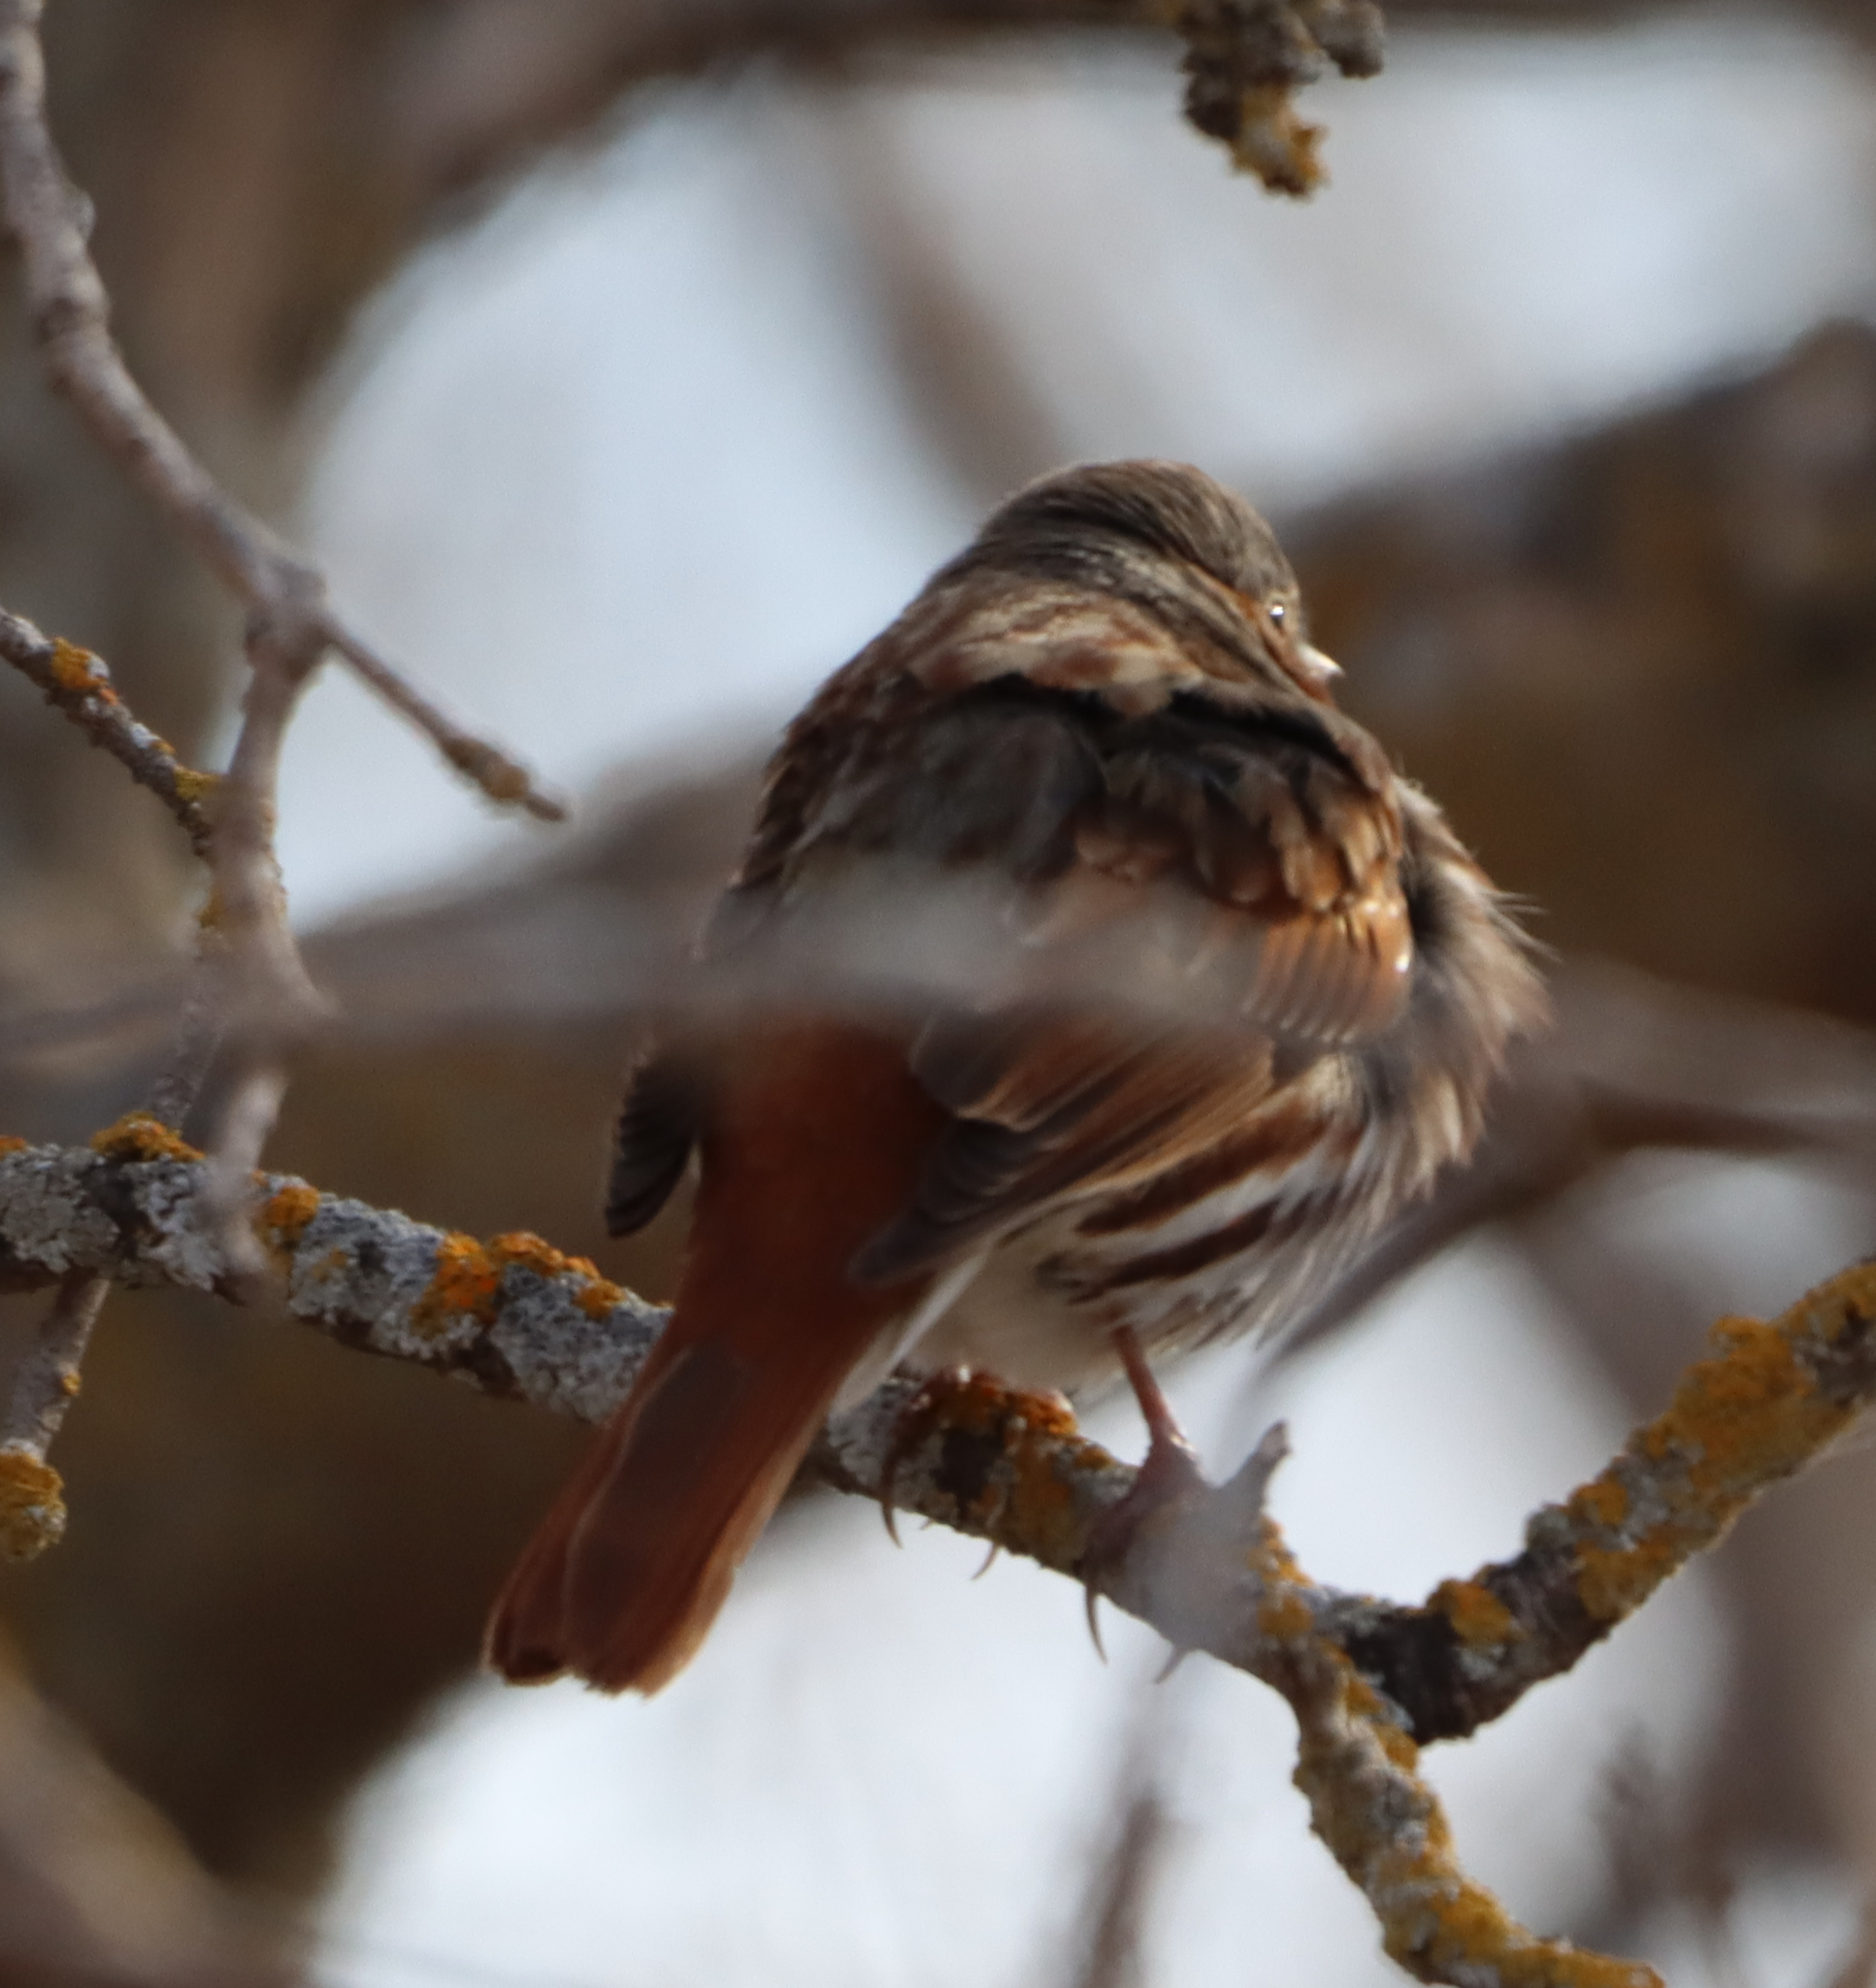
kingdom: Animalia
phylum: Chordata
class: Aves
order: Passeriformes
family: Passerellidae
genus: Passerella
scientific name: Passerella iliaca
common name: Fox sparrow
